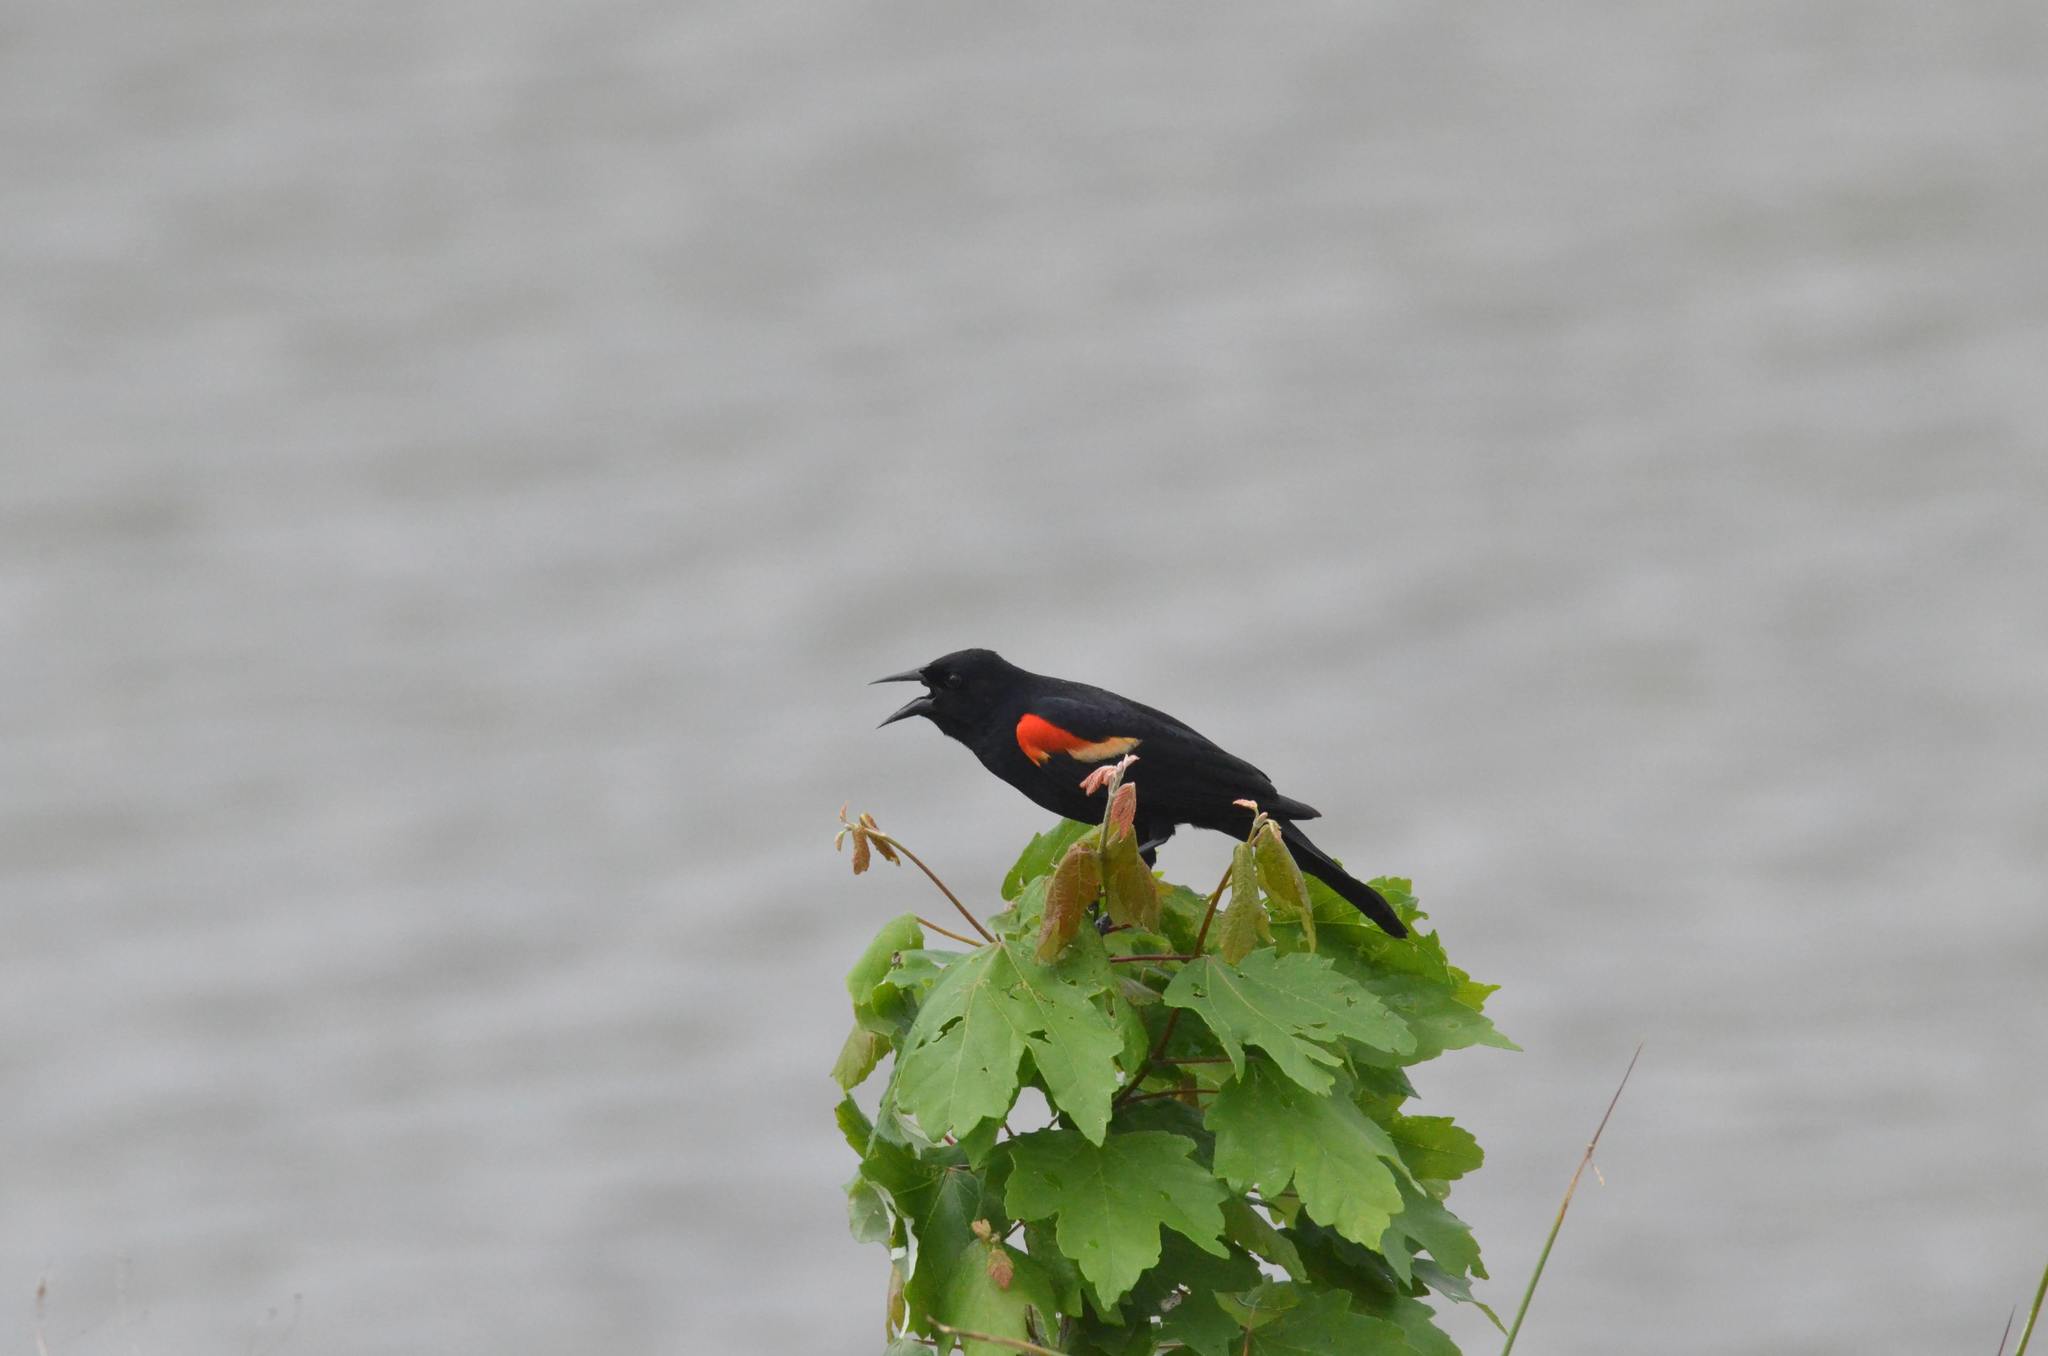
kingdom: Animalia
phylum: Chordata
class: Aves
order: Passeriformes
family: Icteridae
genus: Agelaius
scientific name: Agelaius phoeniceus
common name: Red-winged blackbird
